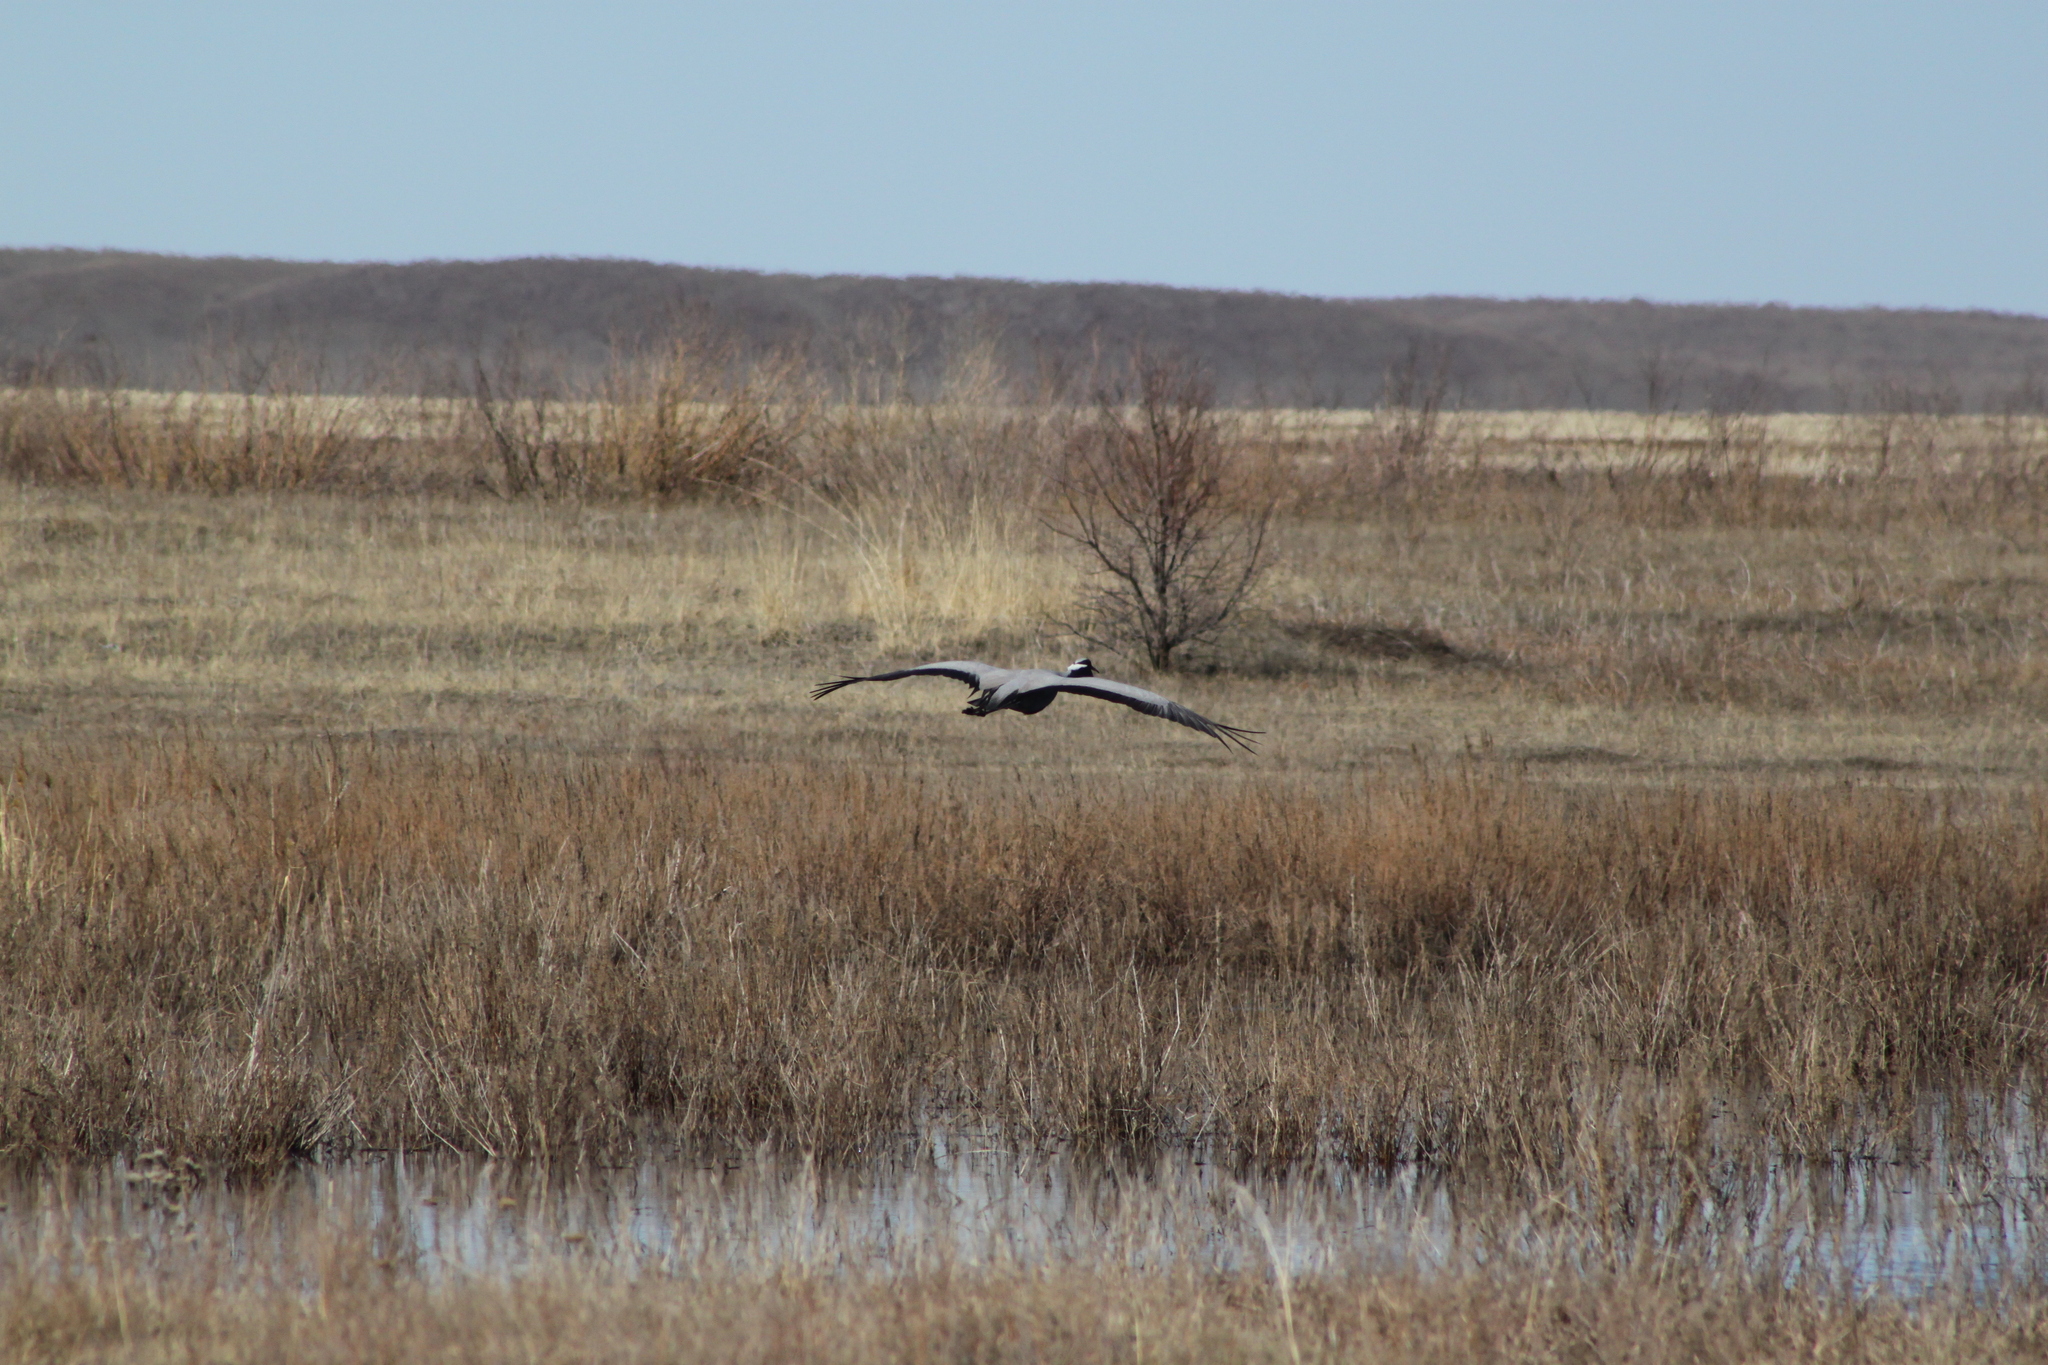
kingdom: Animalia
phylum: Chordata
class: Aves
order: Gruiformes
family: Gruidae
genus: Anthropoides
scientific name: Anthropoides virgo
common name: Demoiselle crane
